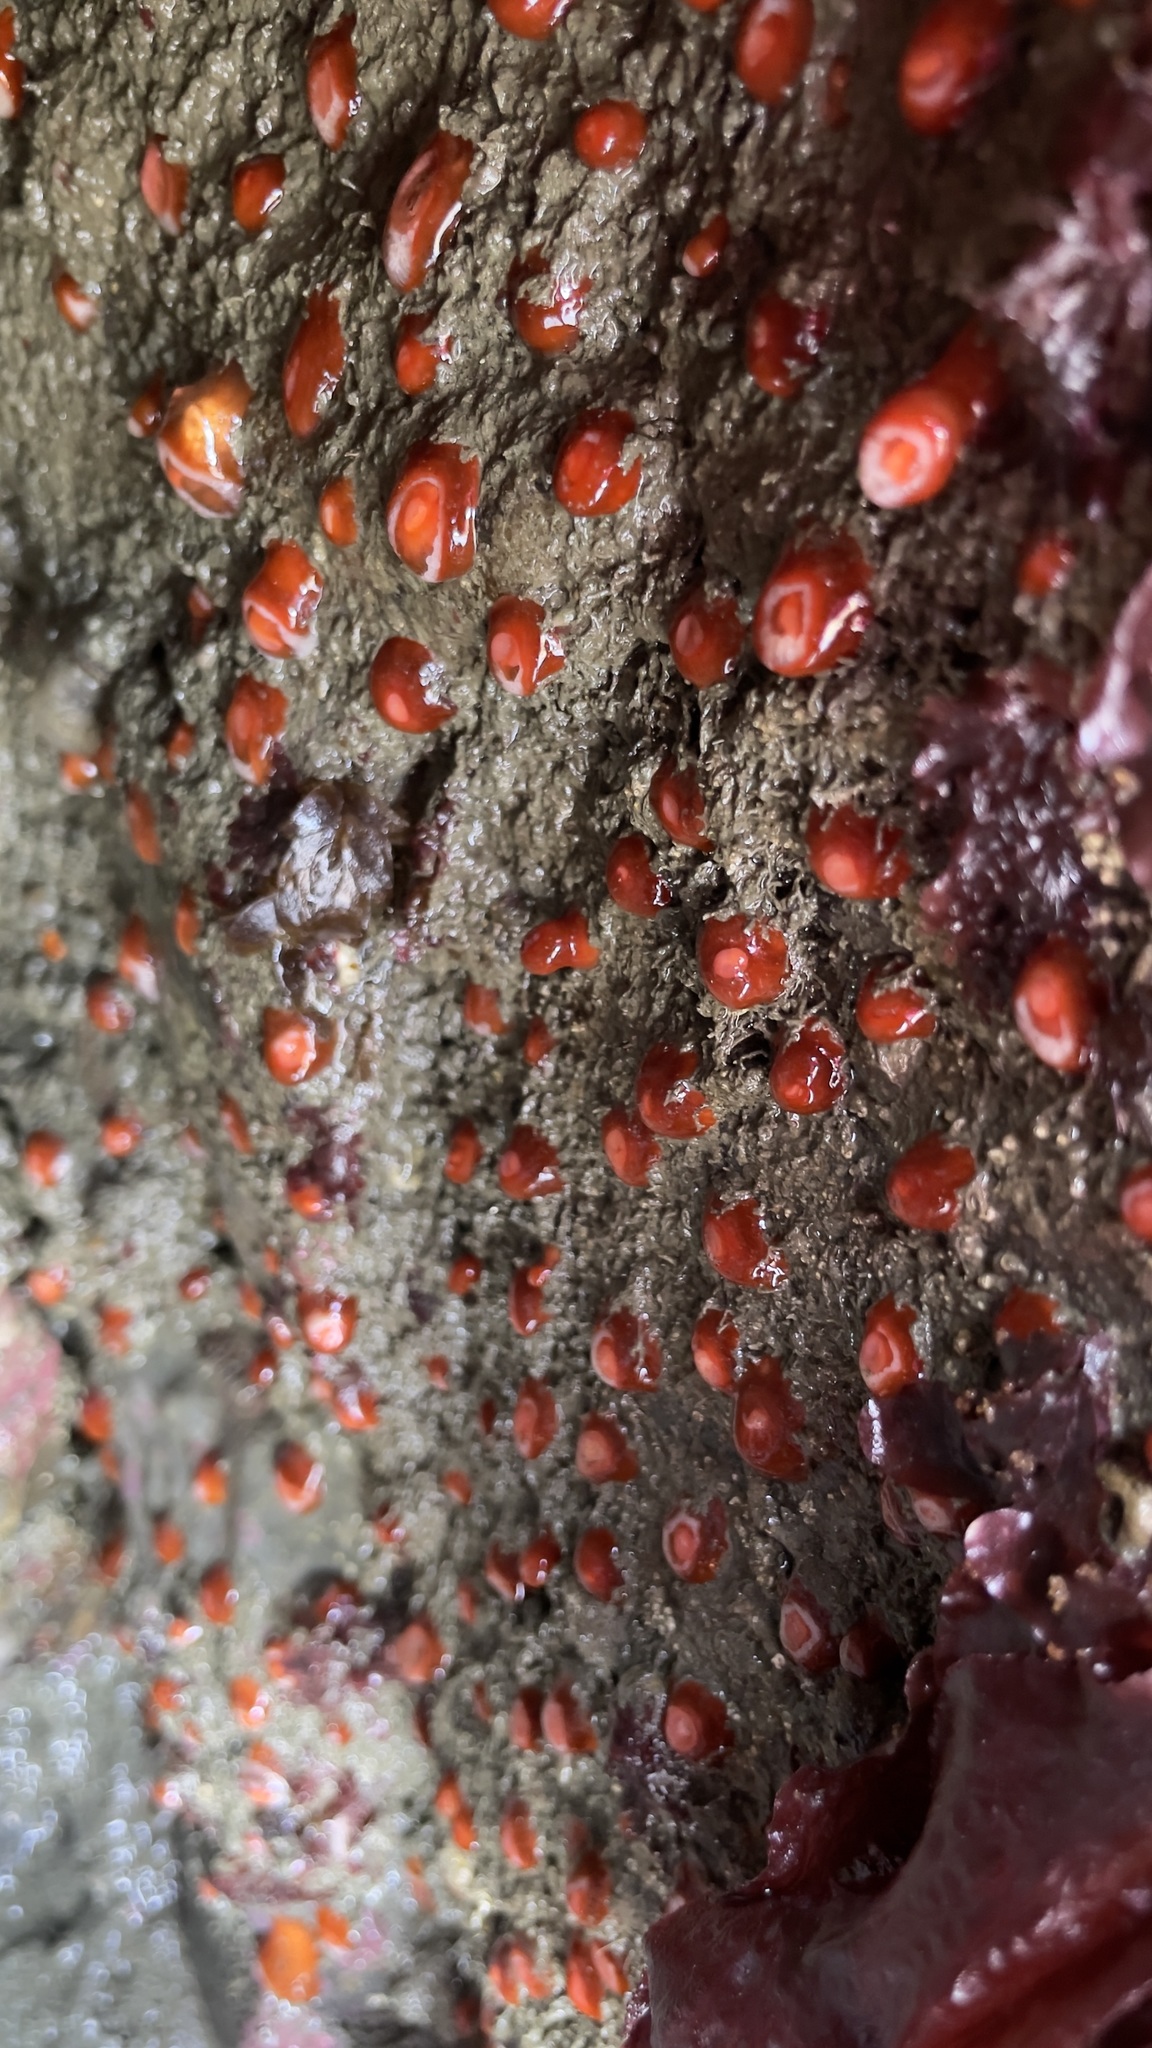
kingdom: Animalia
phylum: Cnidaria
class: Anthozoa
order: Corallimorpharia
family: Corallimorphidae
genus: Corynactis
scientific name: Corynactis californica
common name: Strawberry corallimorpharian
